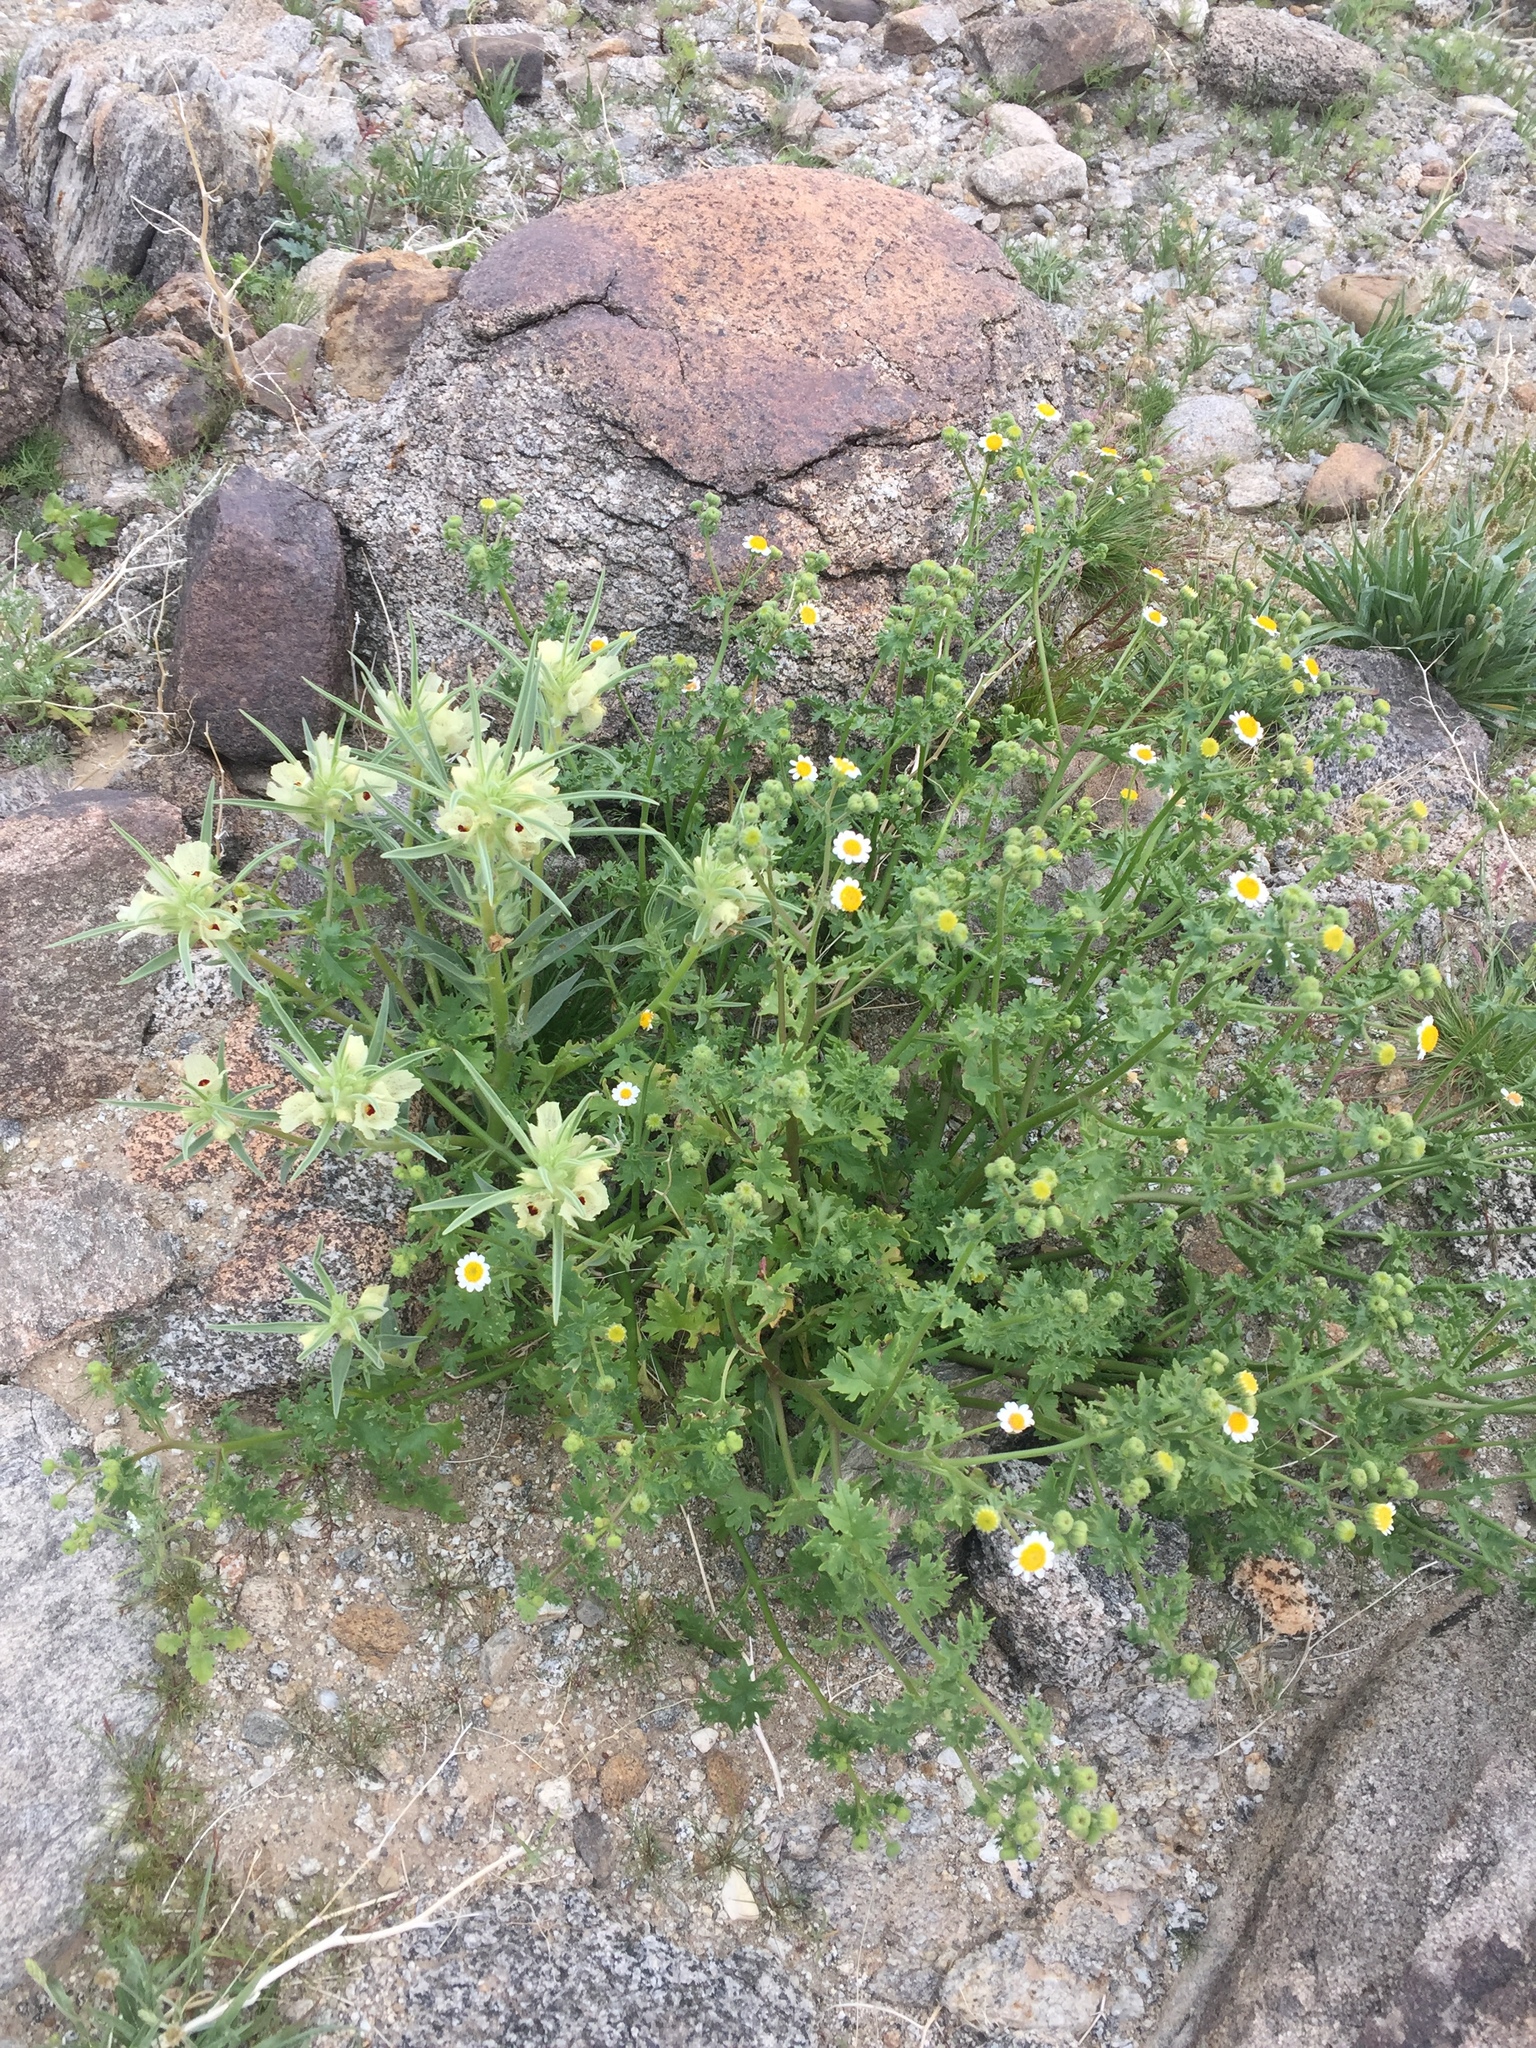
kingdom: Plantae
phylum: Tracheophyta
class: Magnoliopsida
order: Lamiales
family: Plantaginaceae
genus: Mohavea
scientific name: Mohavea confertiflora
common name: Ghost flower
